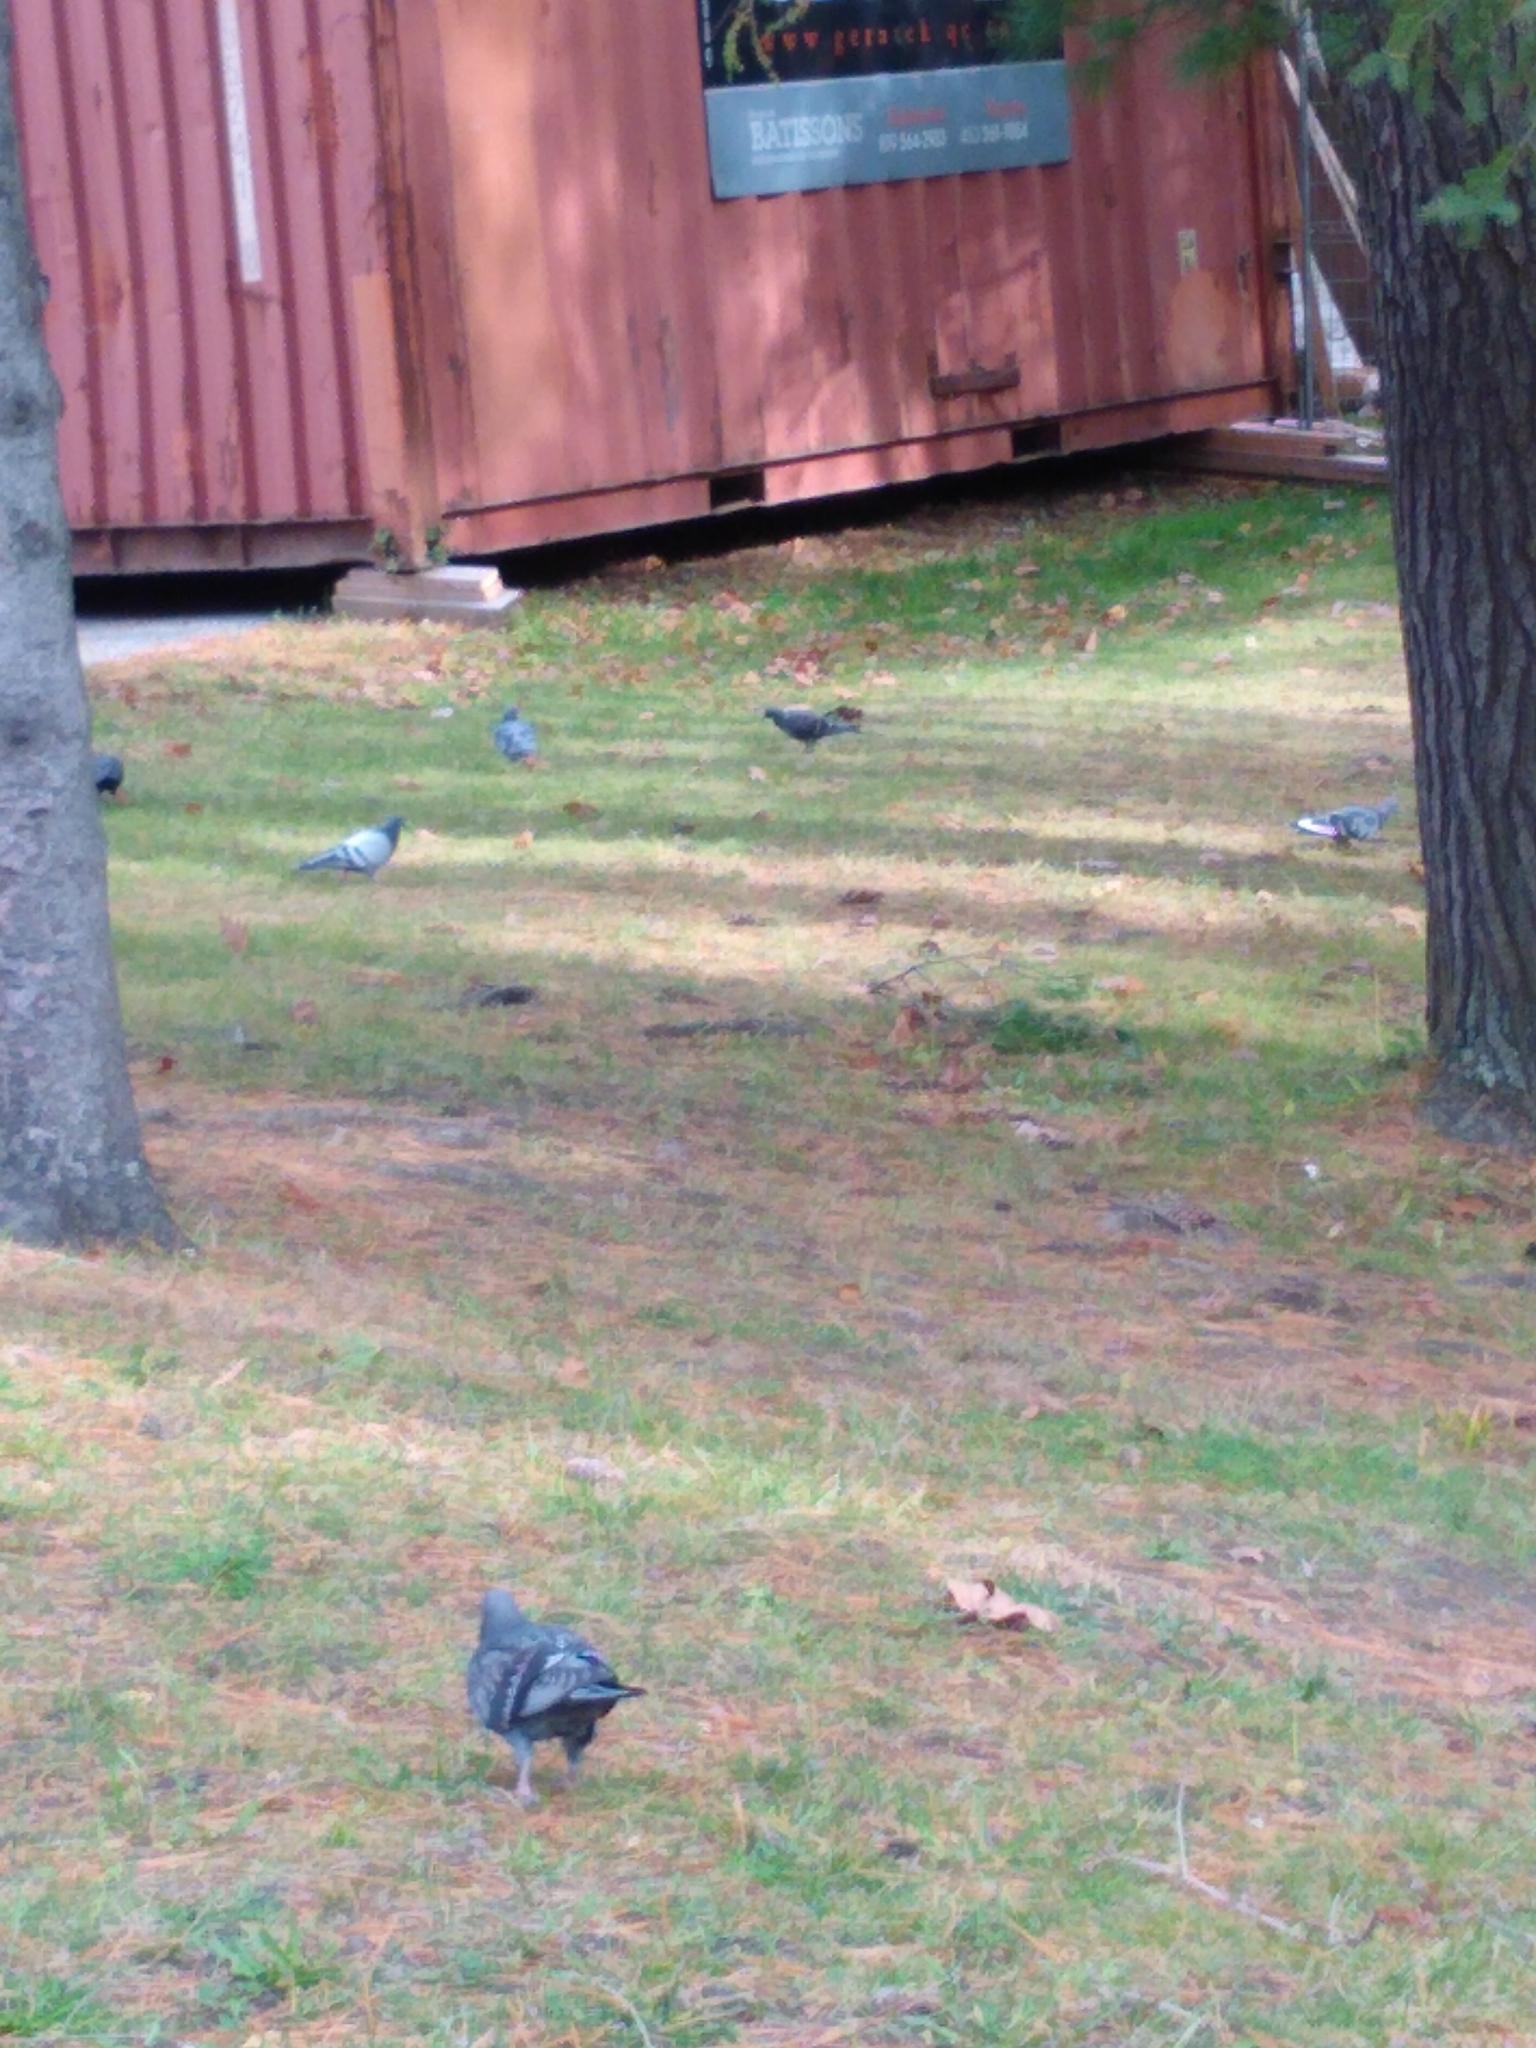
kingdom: Animalia
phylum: Chordata
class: Aves
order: Columbiformes
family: Columbidae
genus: Columba
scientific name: Columba livia
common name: Rock pigeon
